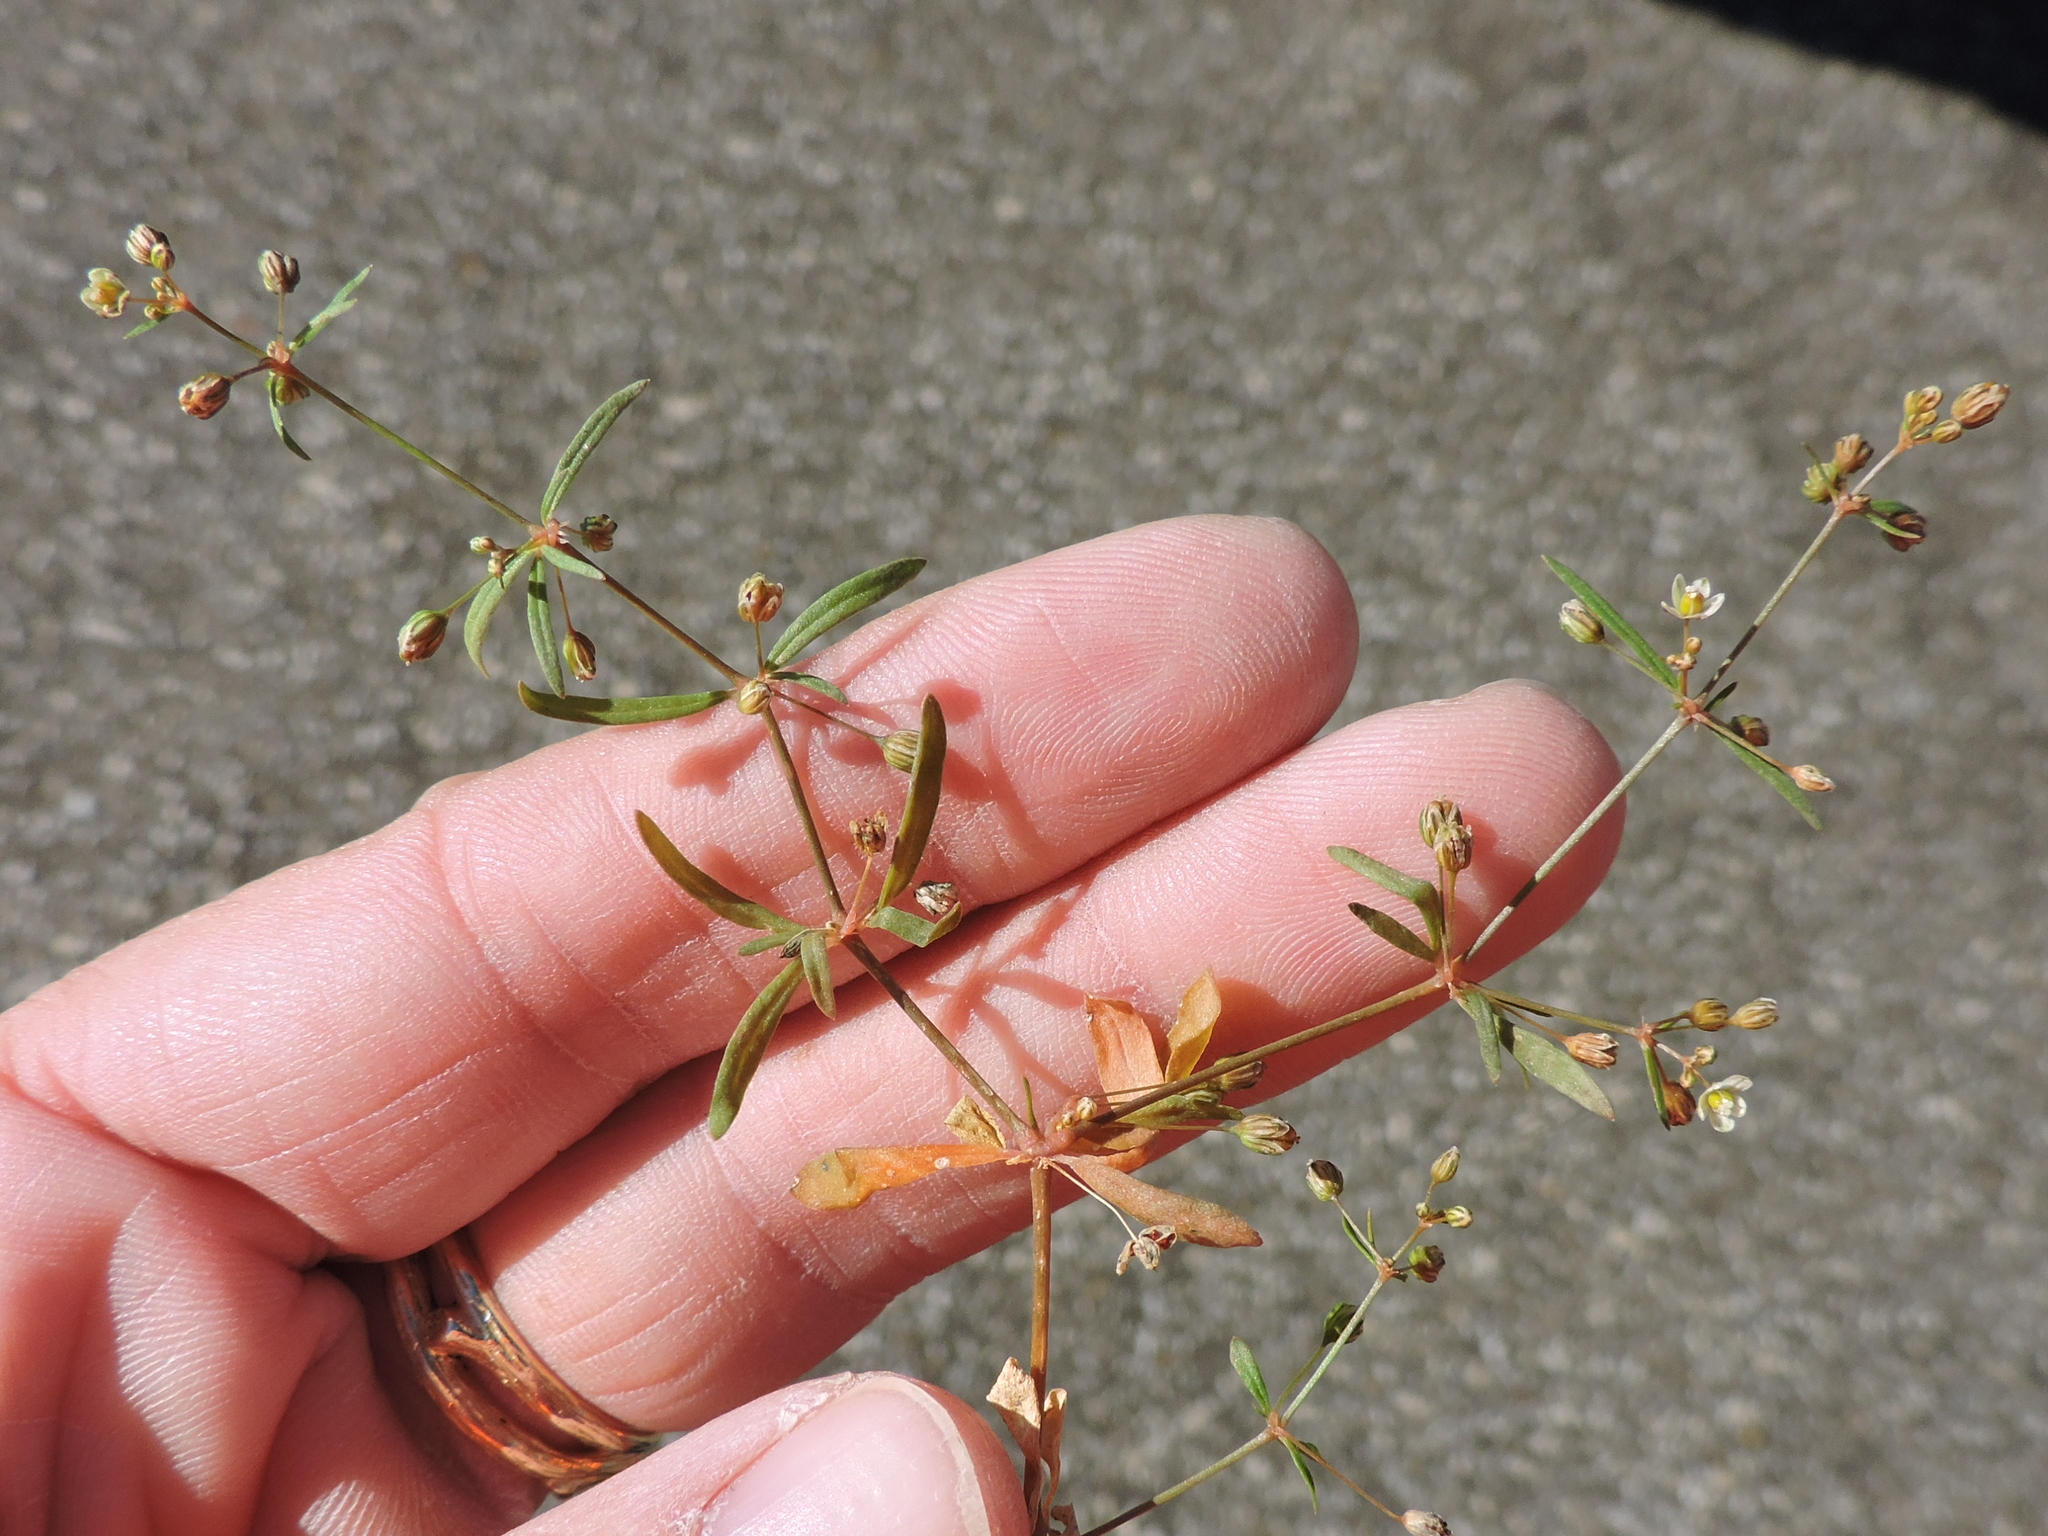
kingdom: Plantae
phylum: Tracheophyta
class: Magnoliopsida
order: Caryophyllales
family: Molluginaceae
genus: Mollugo
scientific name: Mollugo verticillata
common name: Green carpetweed
